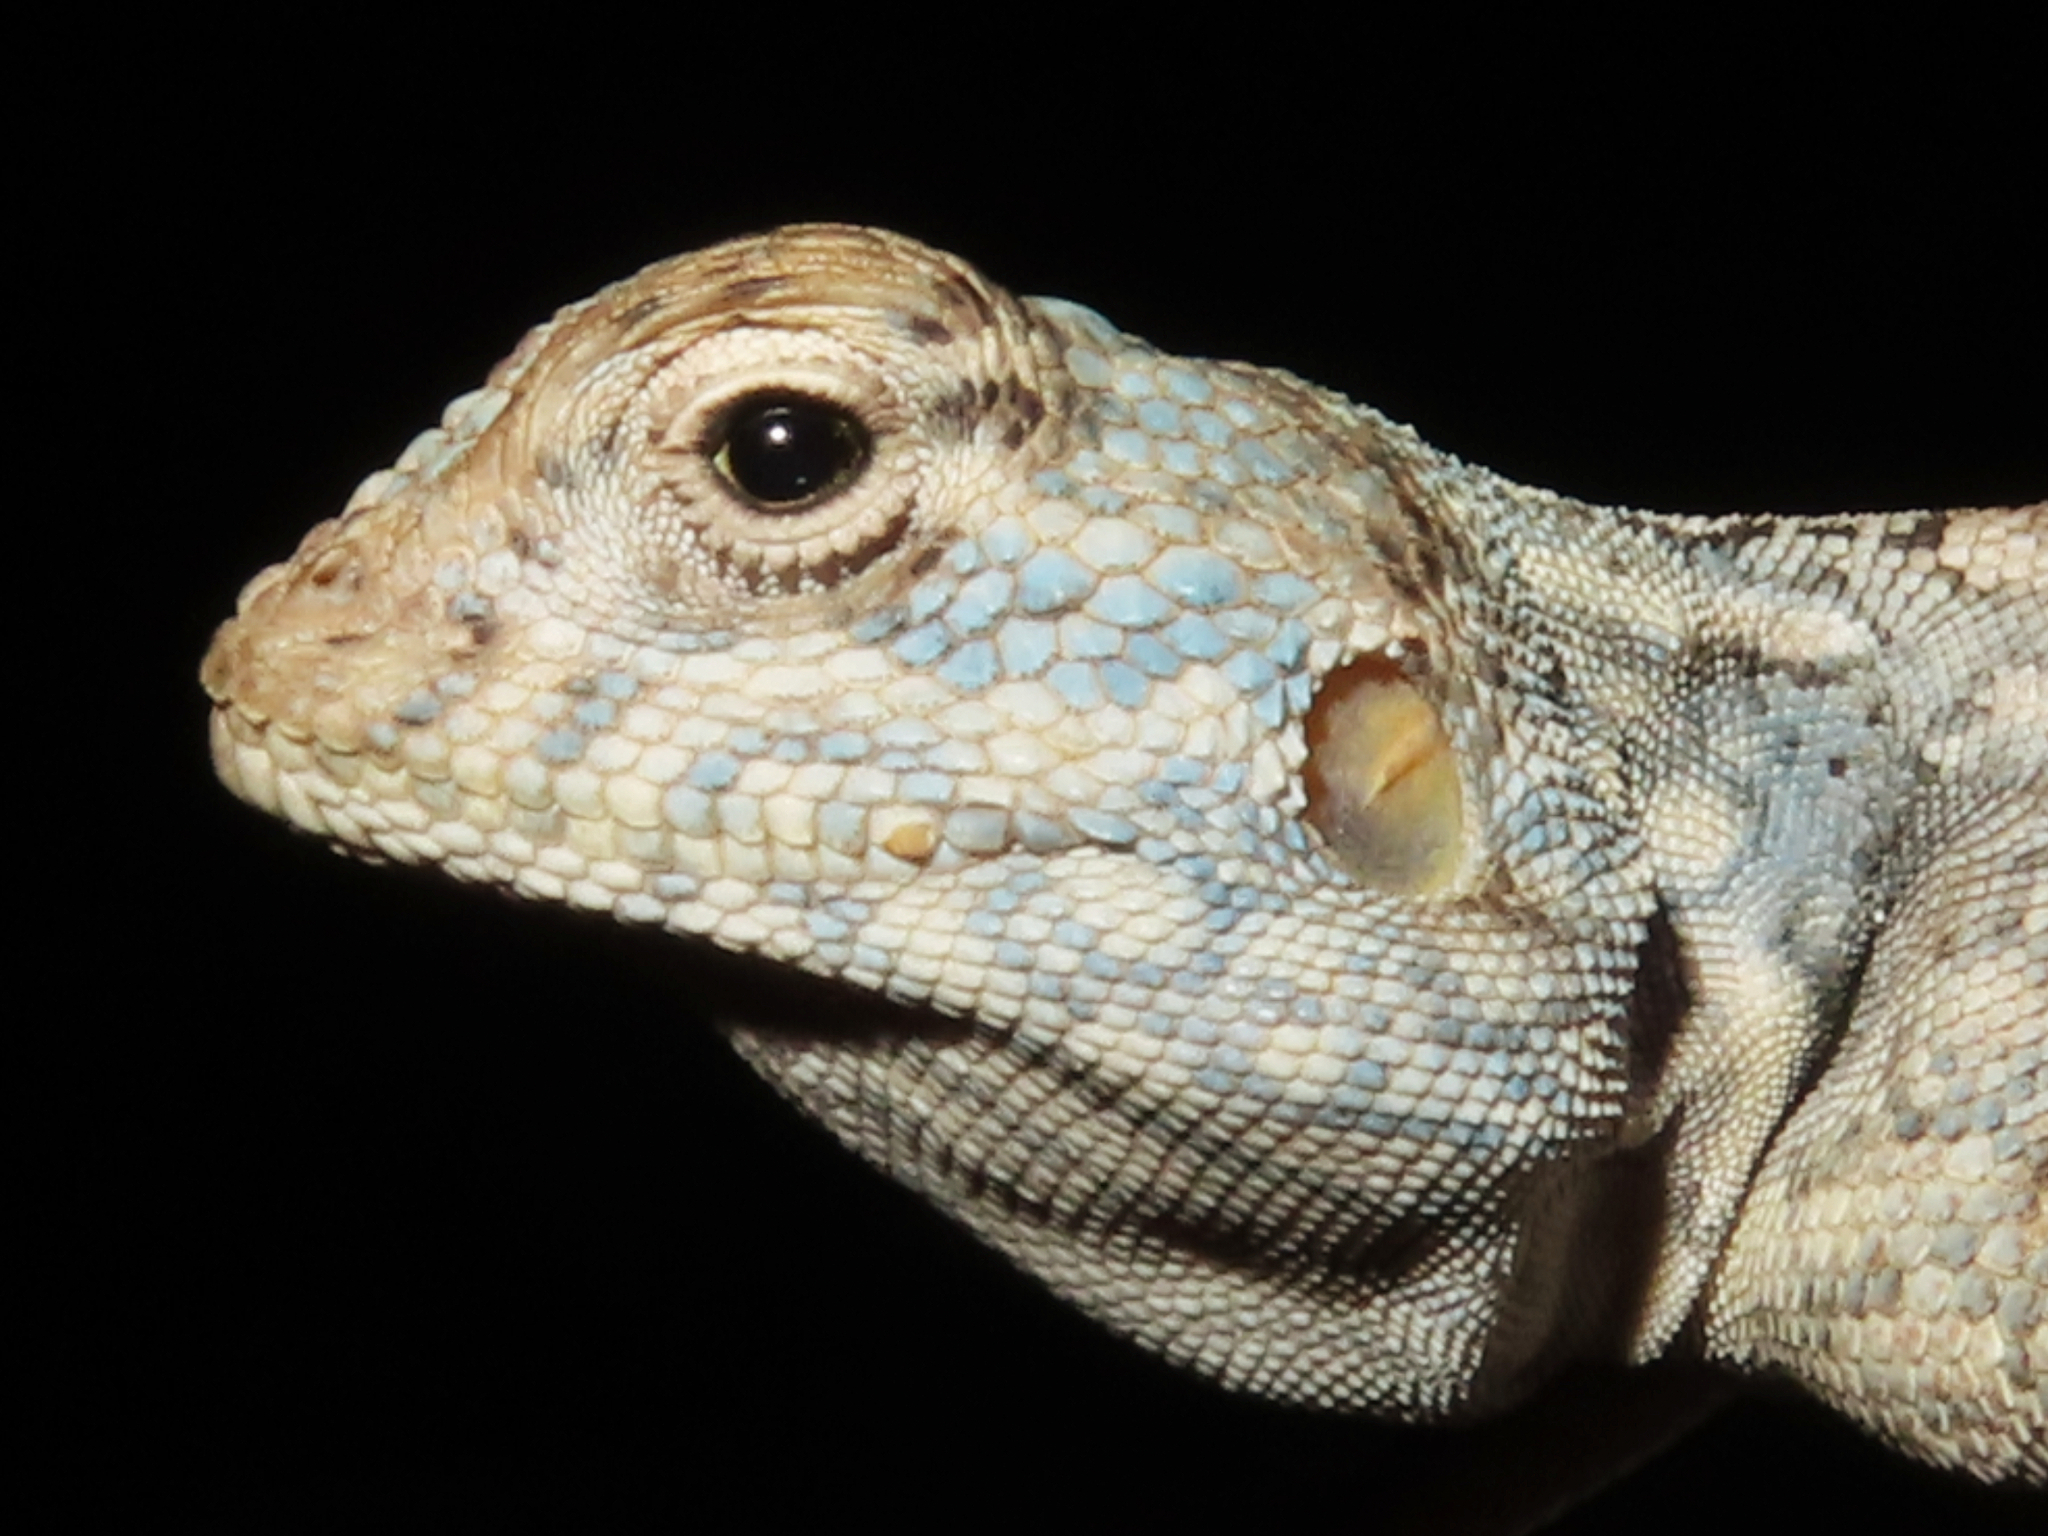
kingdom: Animalia
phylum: Chordata
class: Squamata
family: Agamidae
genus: Pseudotrapelus
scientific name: Pseudotrapelus jensvindumi
